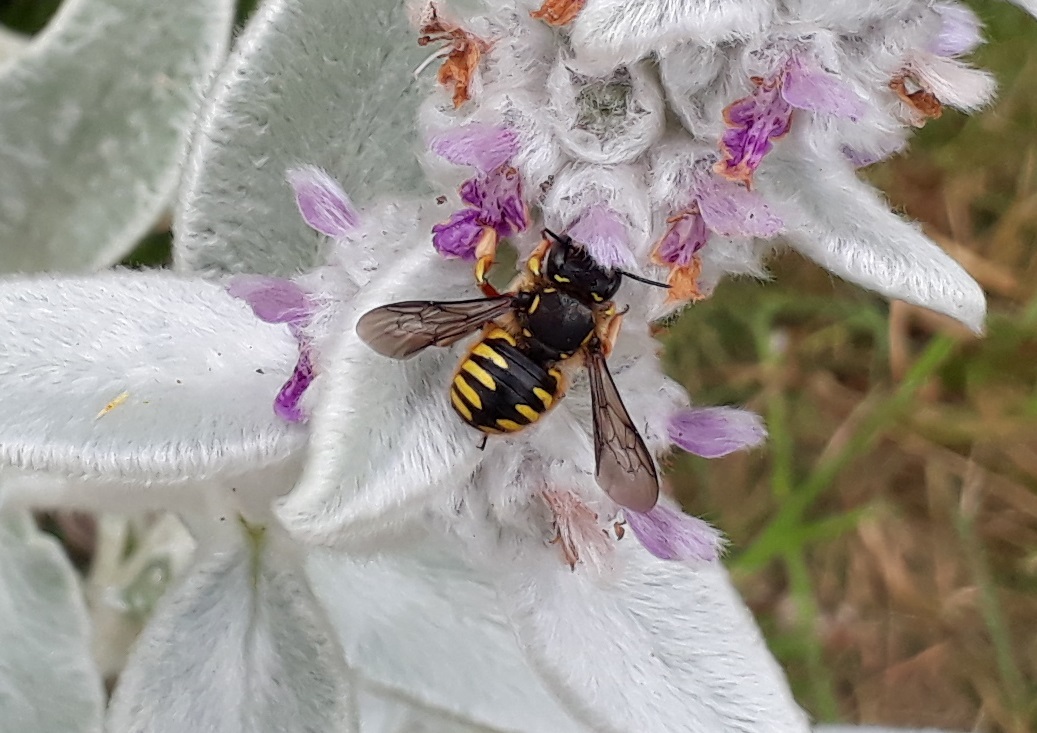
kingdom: Animalia
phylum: Arthropoda
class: Insecta
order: Hymenoptera
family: Megachilidae
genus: Anthidium
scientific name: Anthidium manicatum
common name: Wool carder bee
